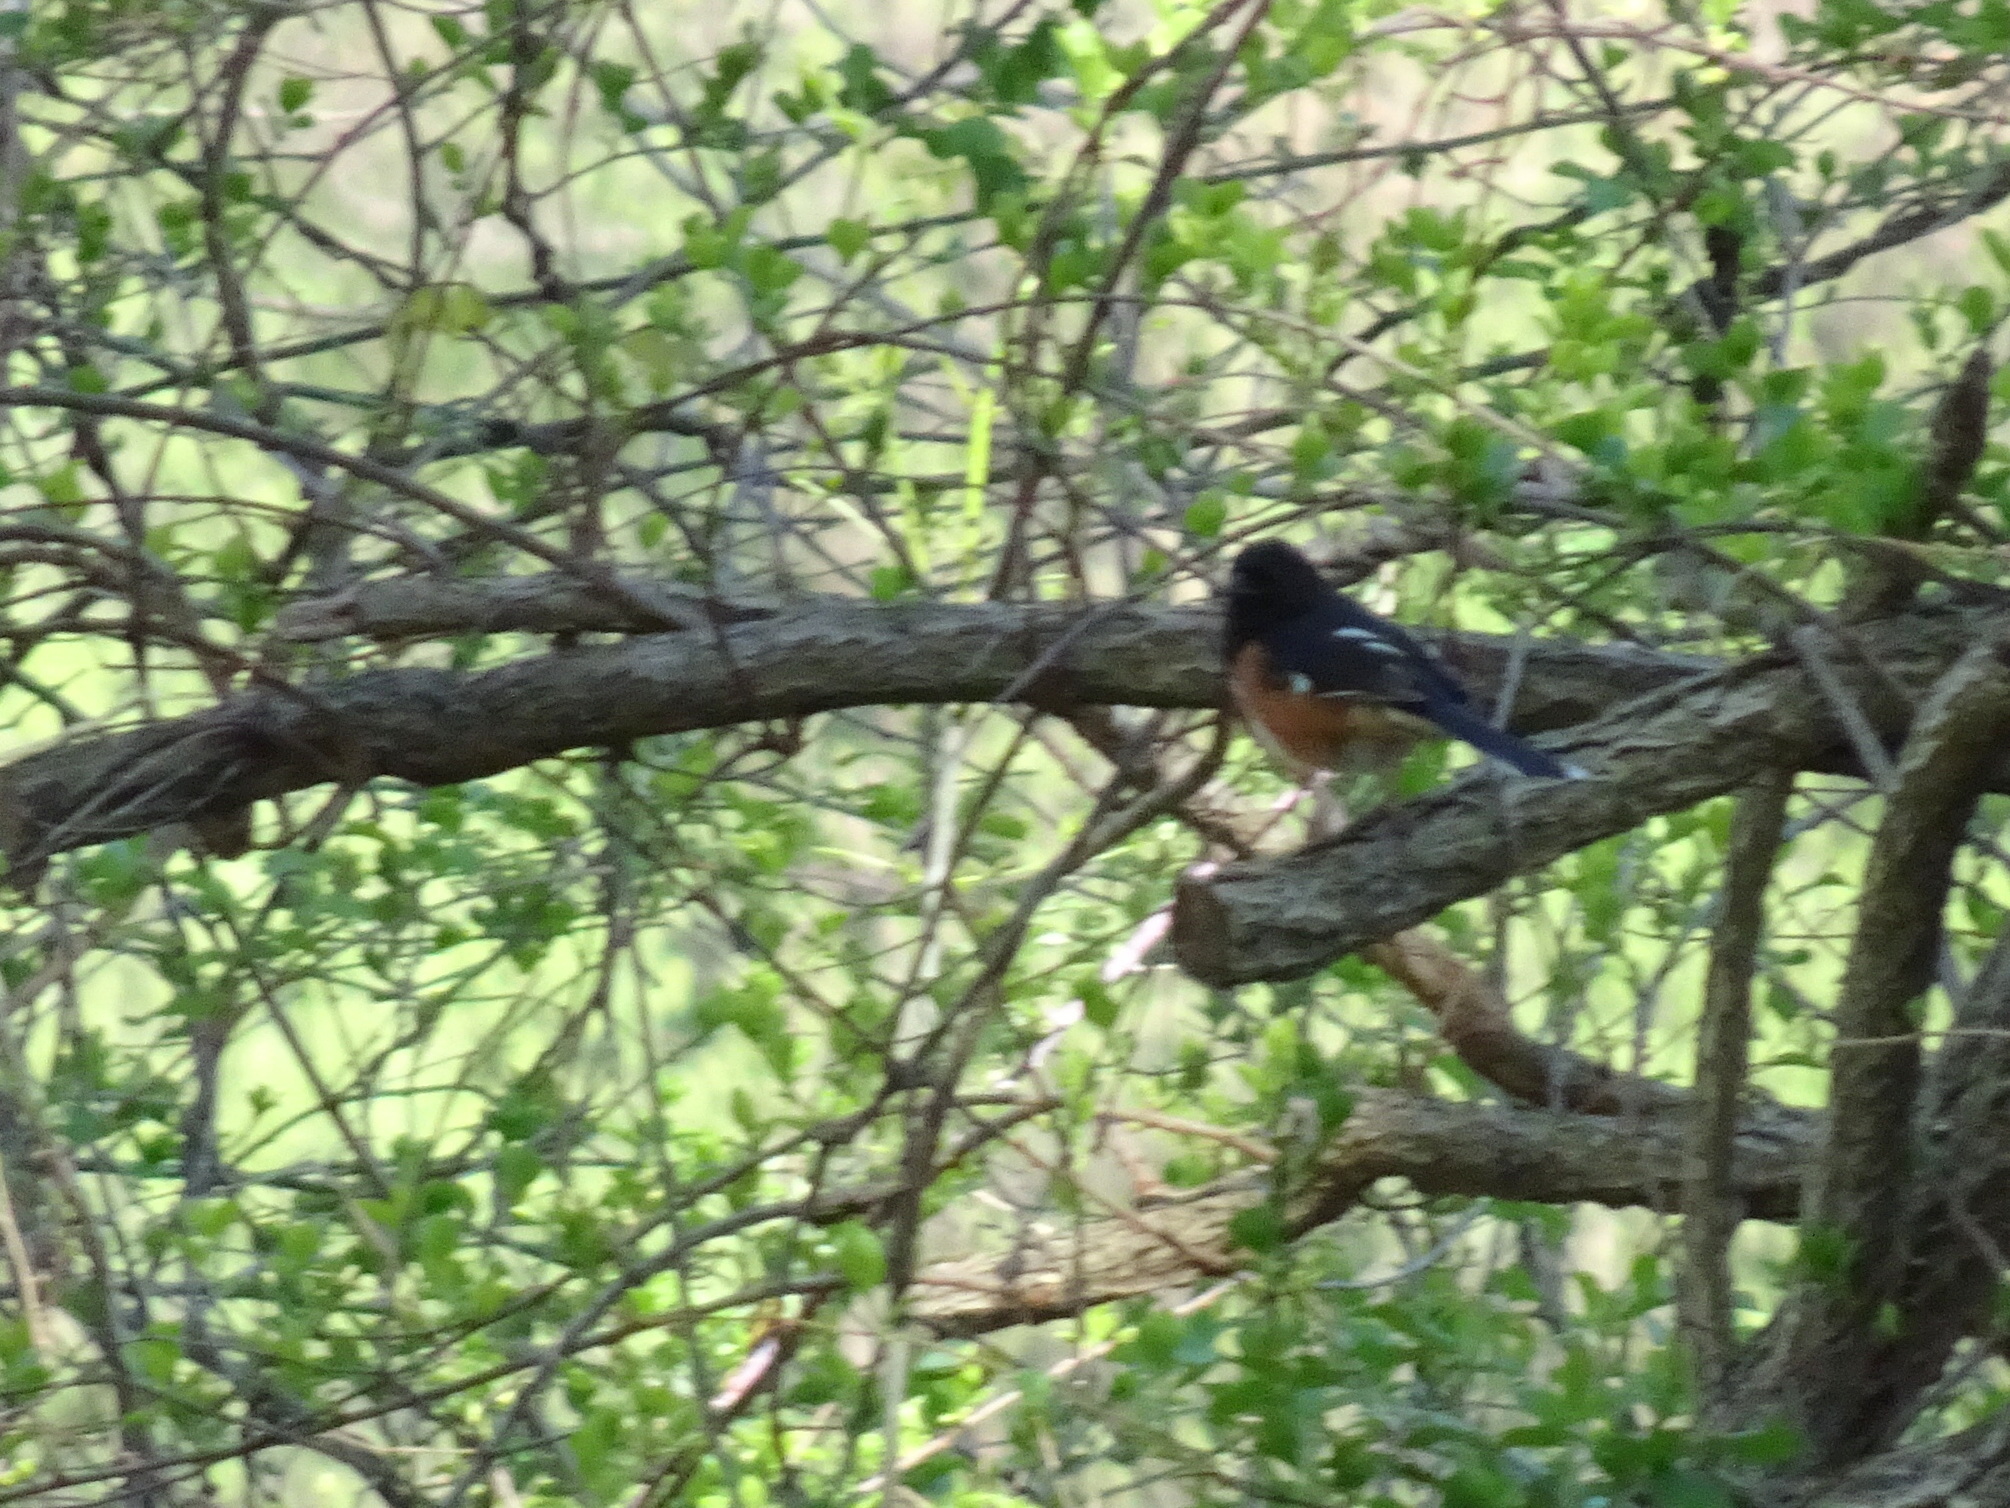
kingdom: Animalia
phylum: Chordata
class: Aves
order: Passeriformes
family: Passerellidae
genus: Pipilo
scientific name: Pipilo erythrophthalmus
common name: Eastern towhee
